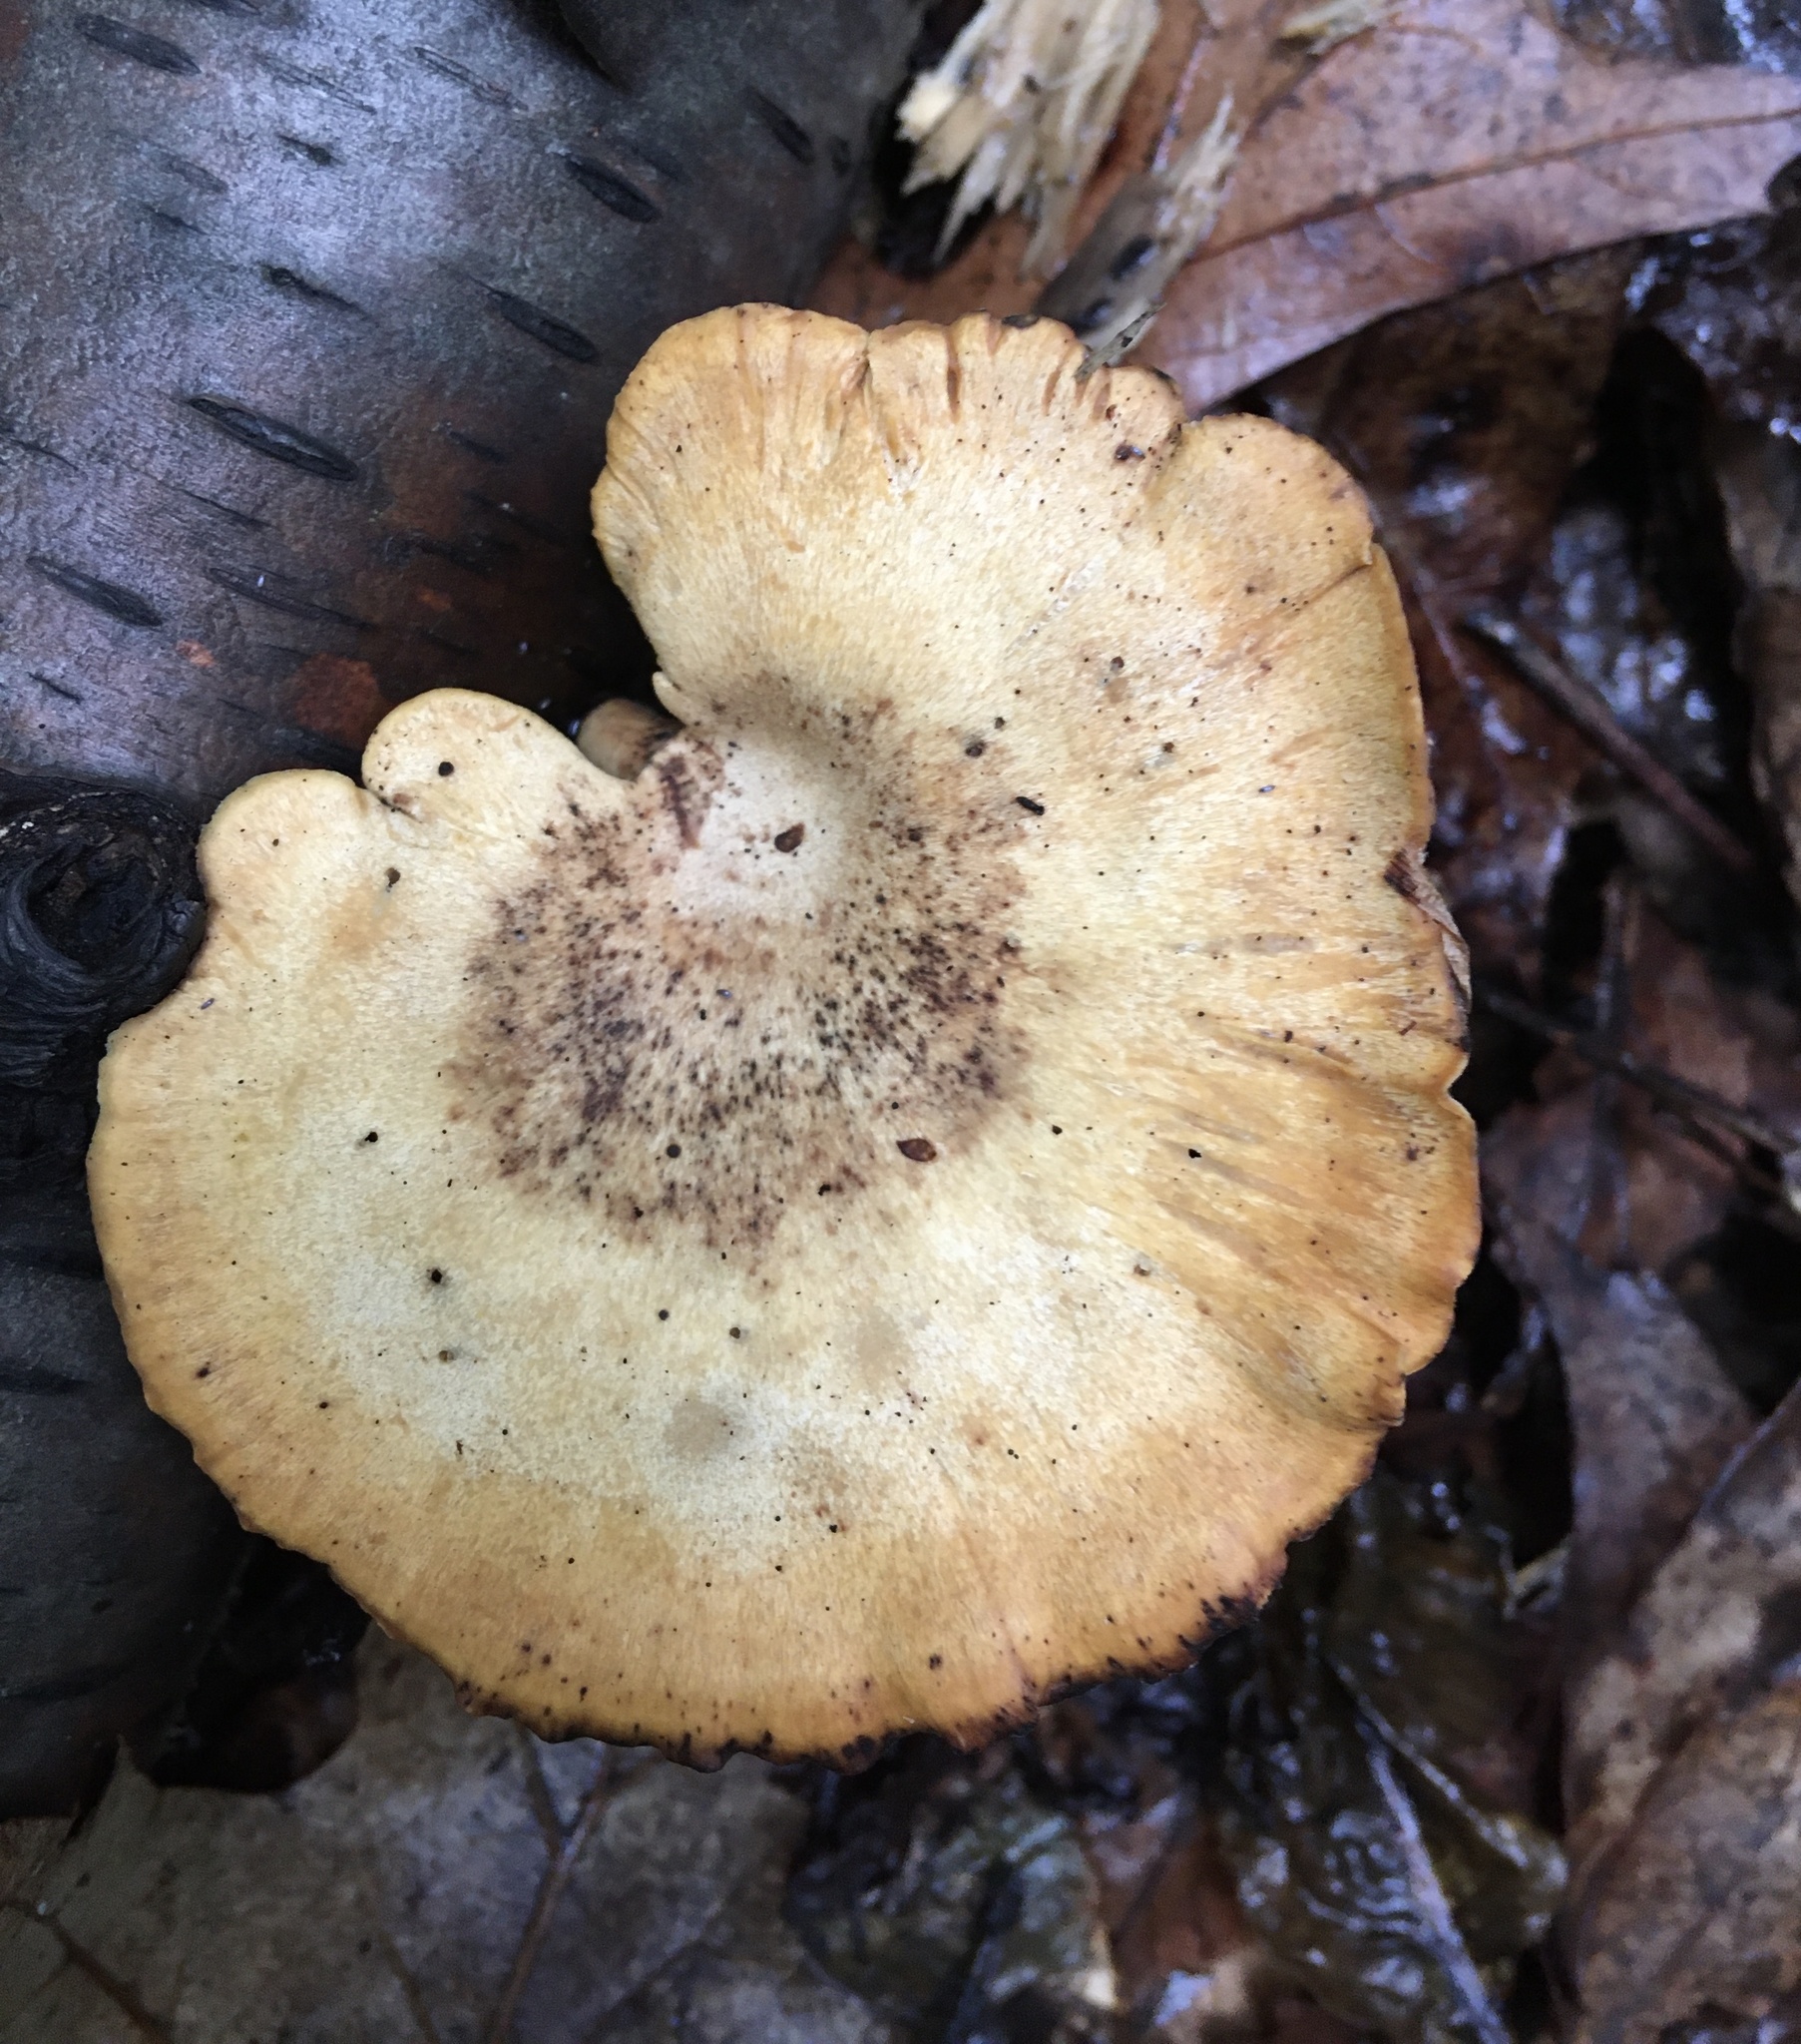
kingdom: Fungi
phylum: Basidiomycota
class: Agaricomycetes
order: Polyporales
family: Polyporaceae
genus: Cerioporus
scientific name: Cerioporus leptocephalus
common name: Blackfoot polypore
